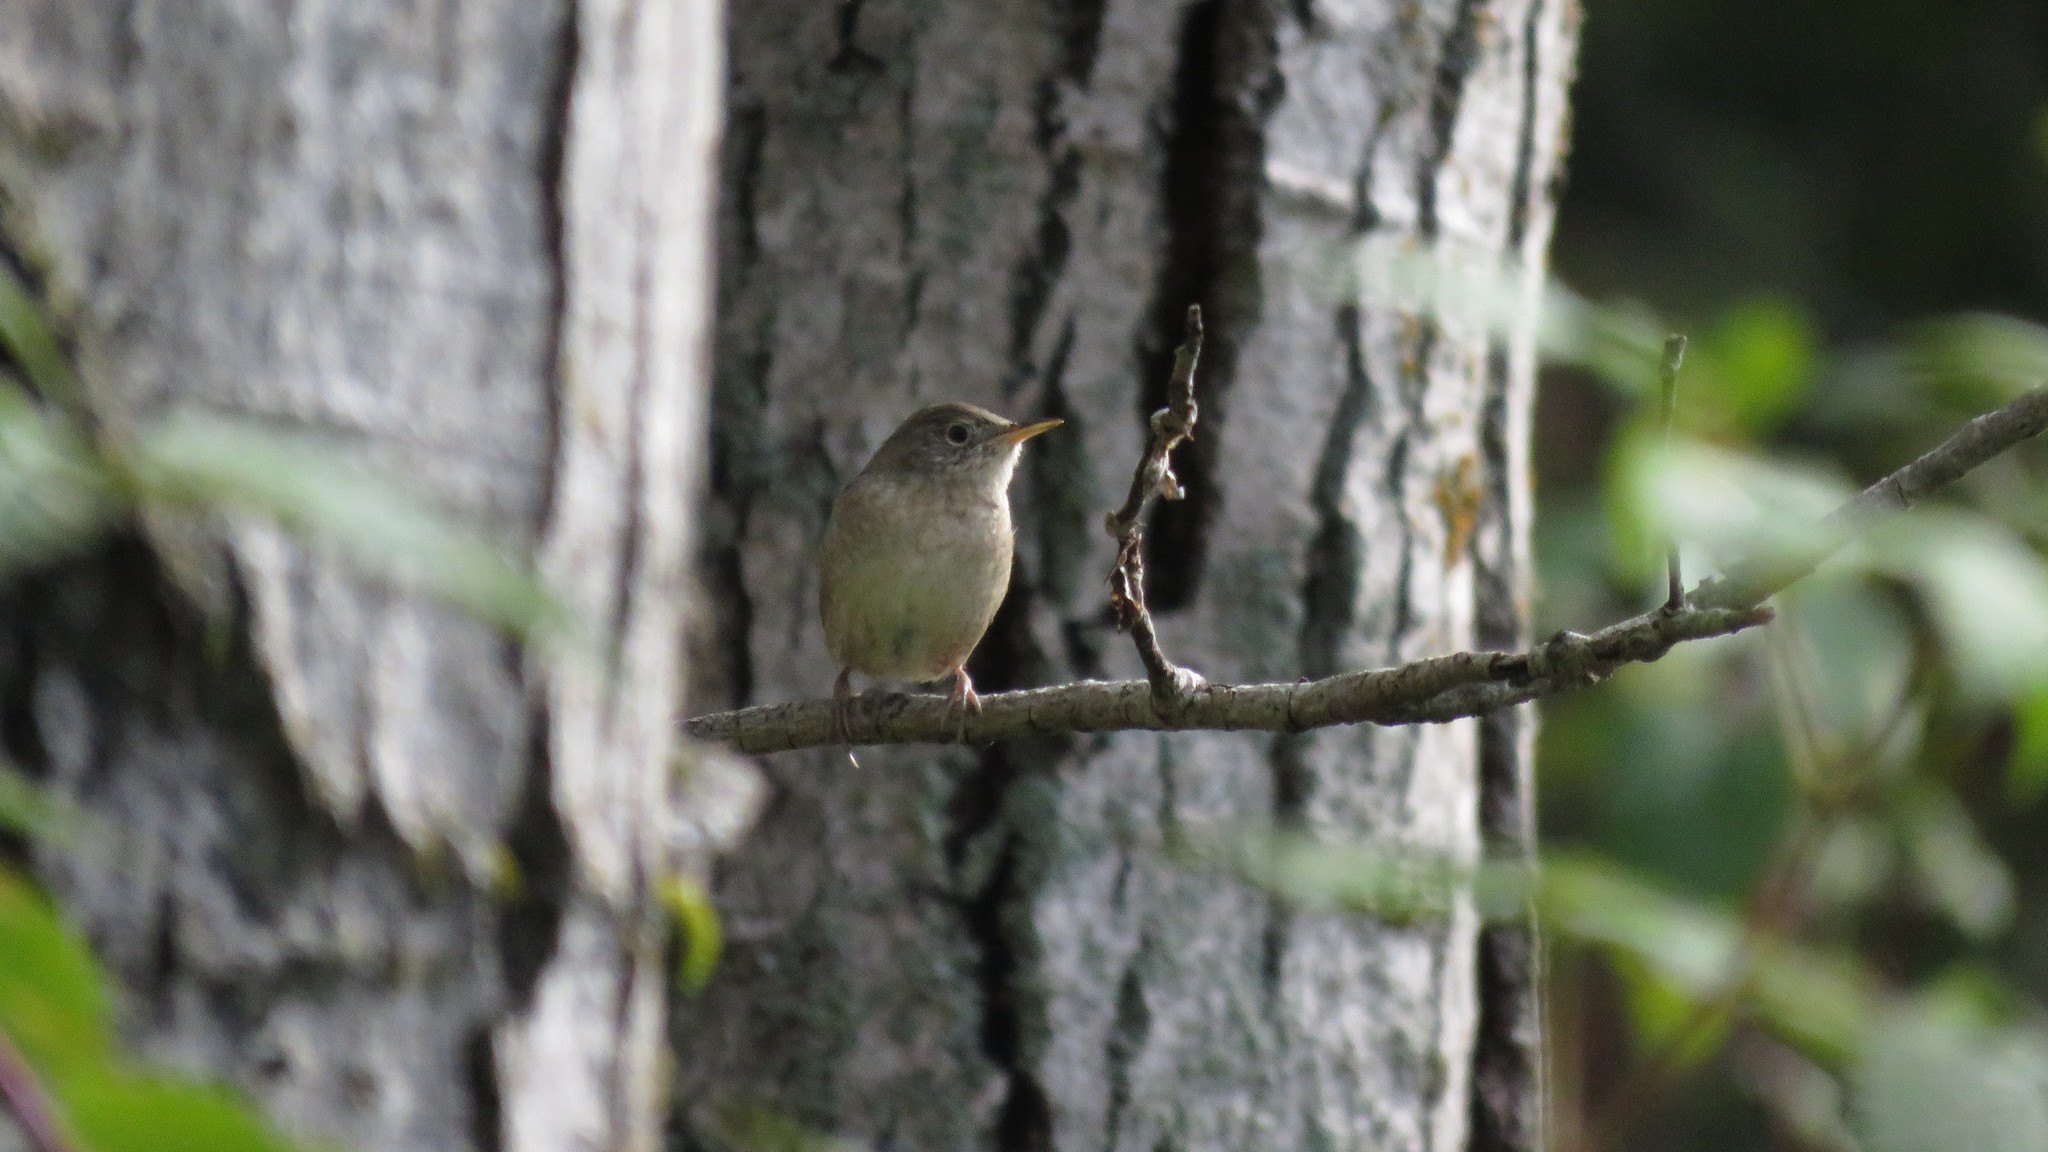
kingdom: Animalia
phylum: Chordata
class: Aves
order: Passeriformes
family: Troglodytidae
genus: Troglodytes
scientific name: Troglodytes aedon
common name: House wren
